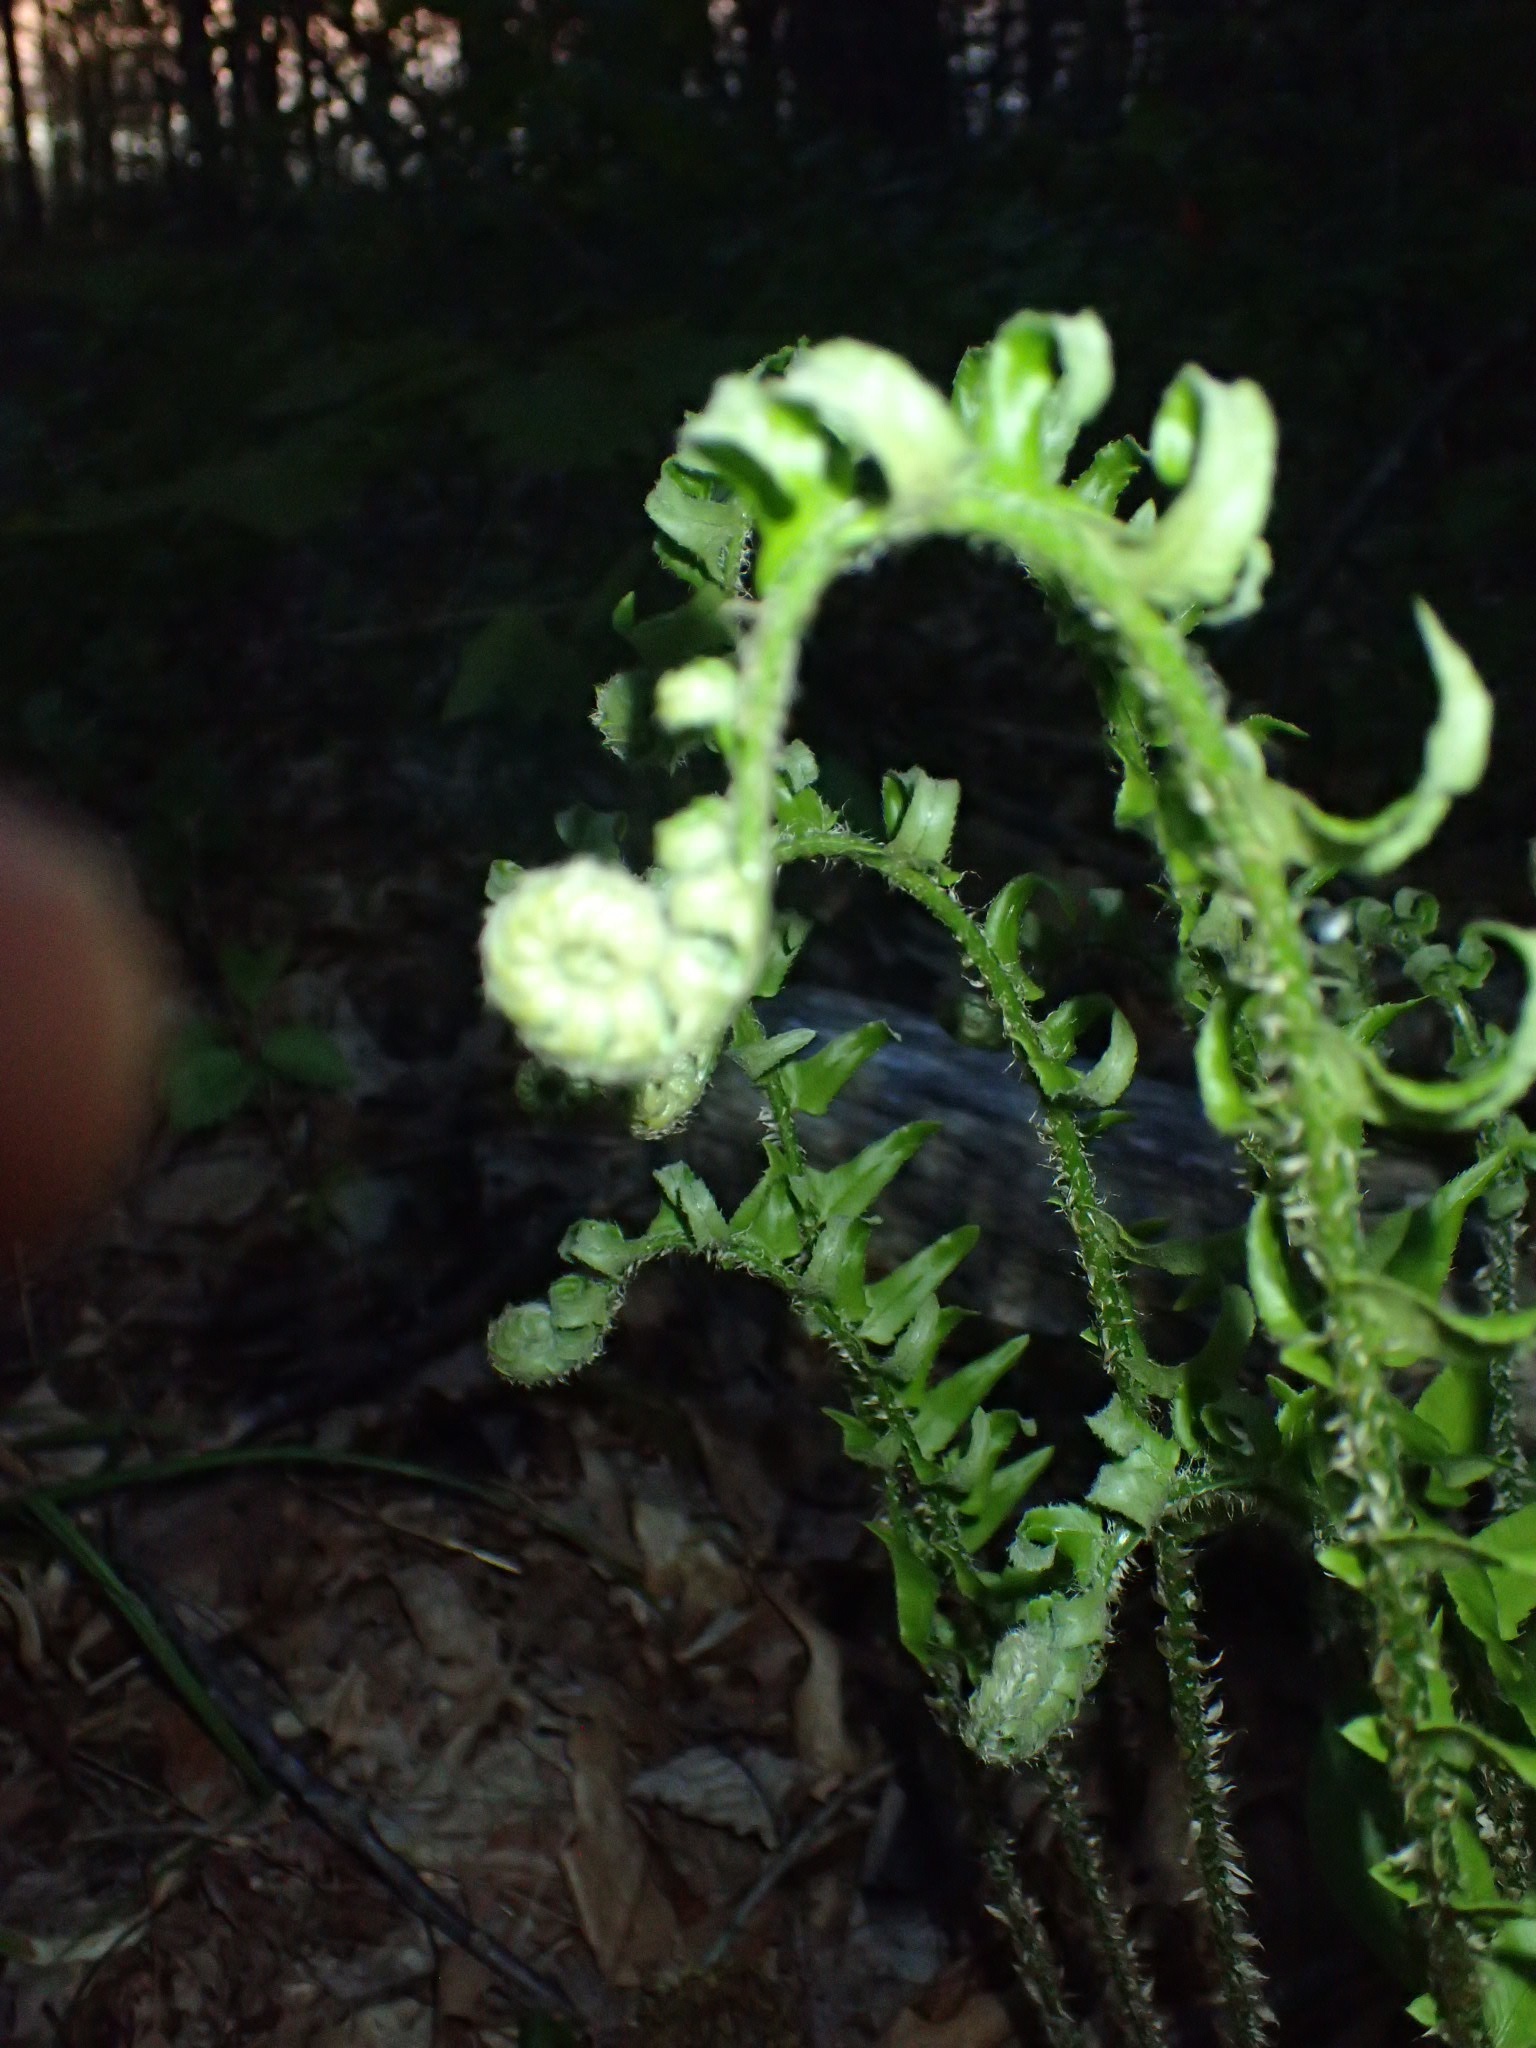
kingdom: Plantae
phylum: Tracheophyta
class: Polypodiopsida
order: Polypodiales
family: Dryopteridaceae
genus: Polystichum
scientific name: Polystichum acrostichoides
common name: Christmas fern
